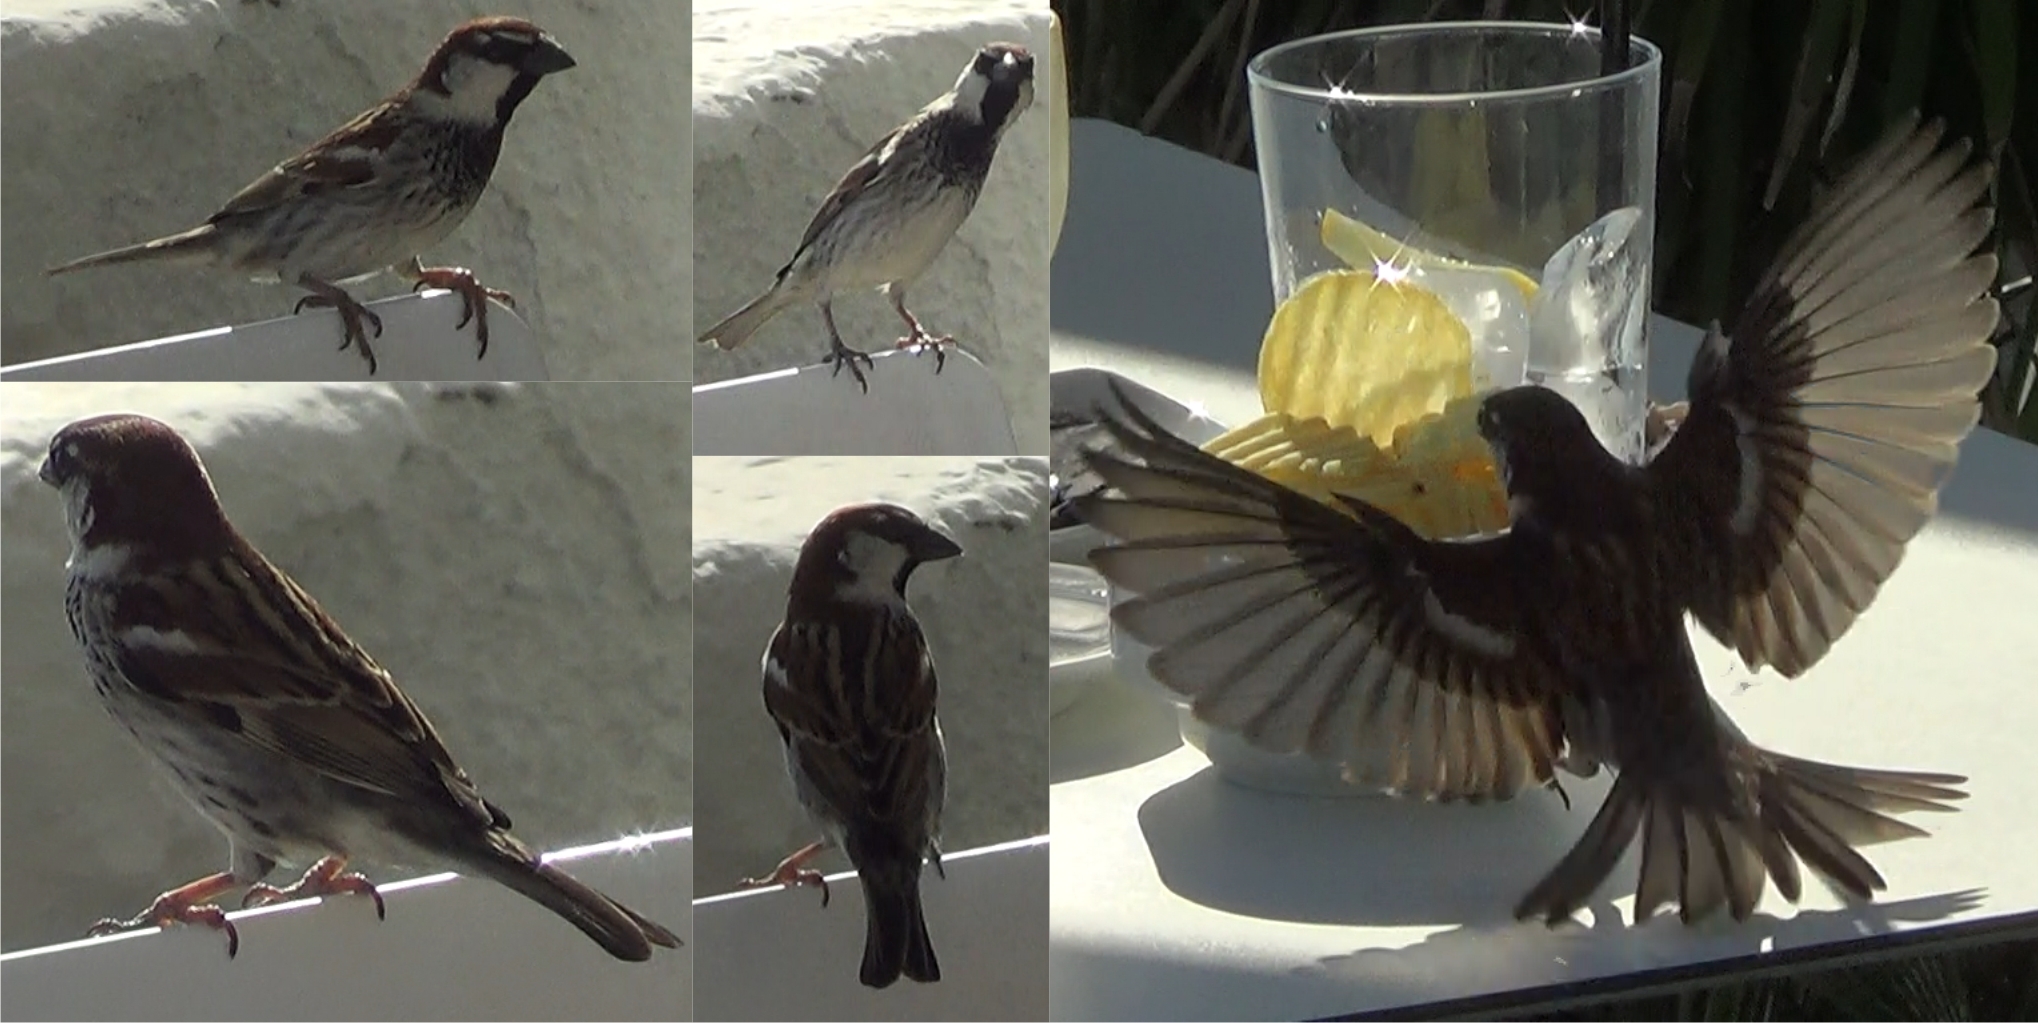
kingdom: Animalia
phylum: Chordata
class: Aves
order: Passeriformes
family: Passeridae
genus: Passer
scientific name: Passer italiae
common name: Italian sparrow
